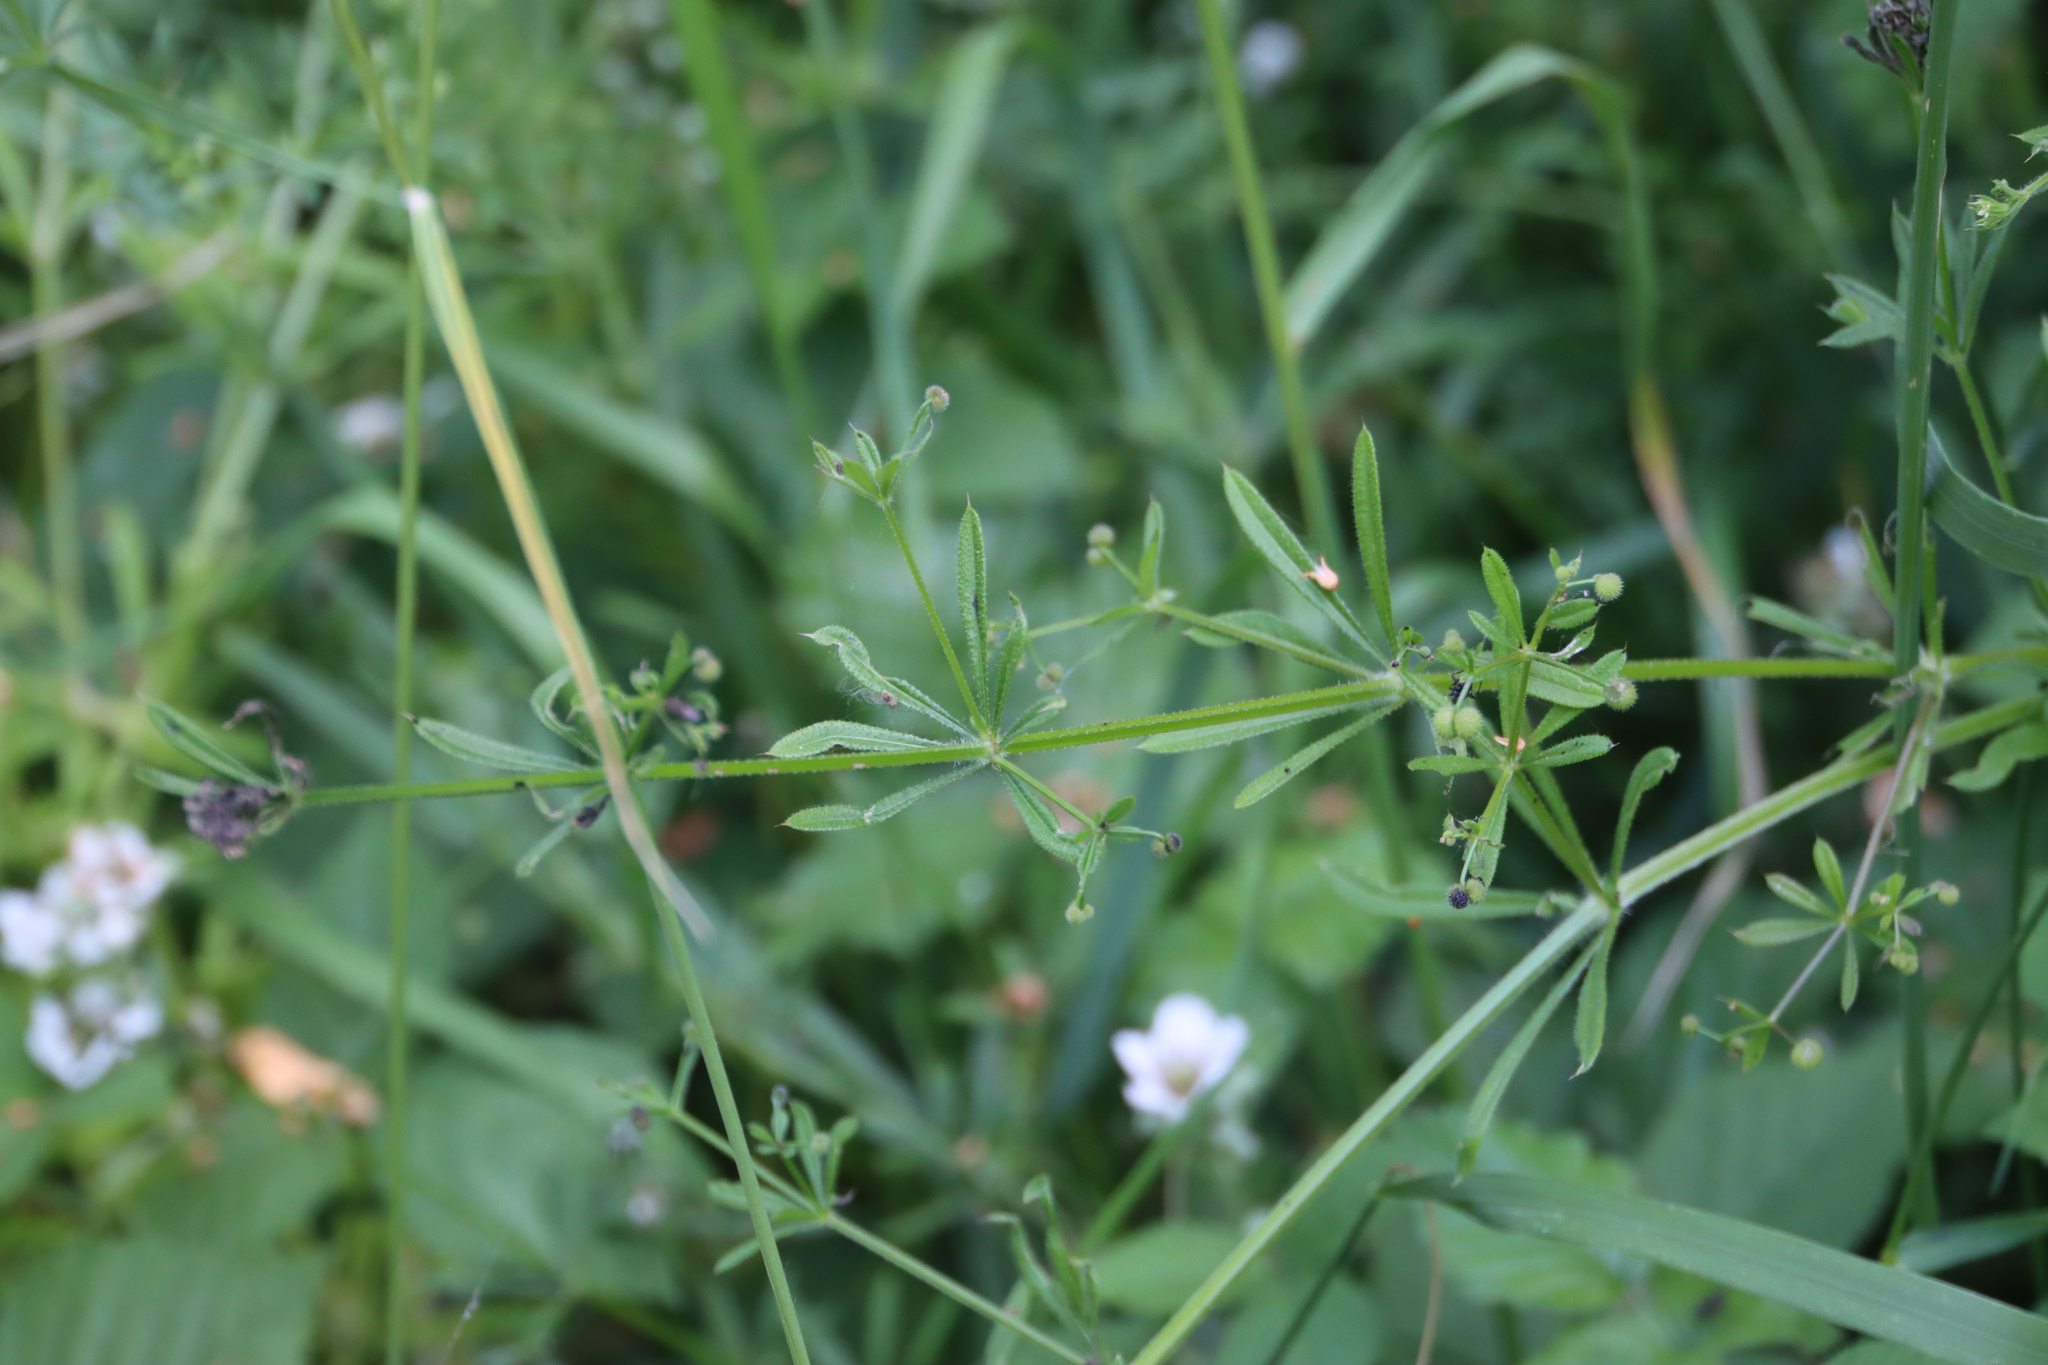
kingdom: Plantae
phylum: Tracheophyta
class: Magnoliopsida
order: Gentianales
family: Rubiaceae
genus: Galium
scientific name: Galium aparine
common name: Cleavers
